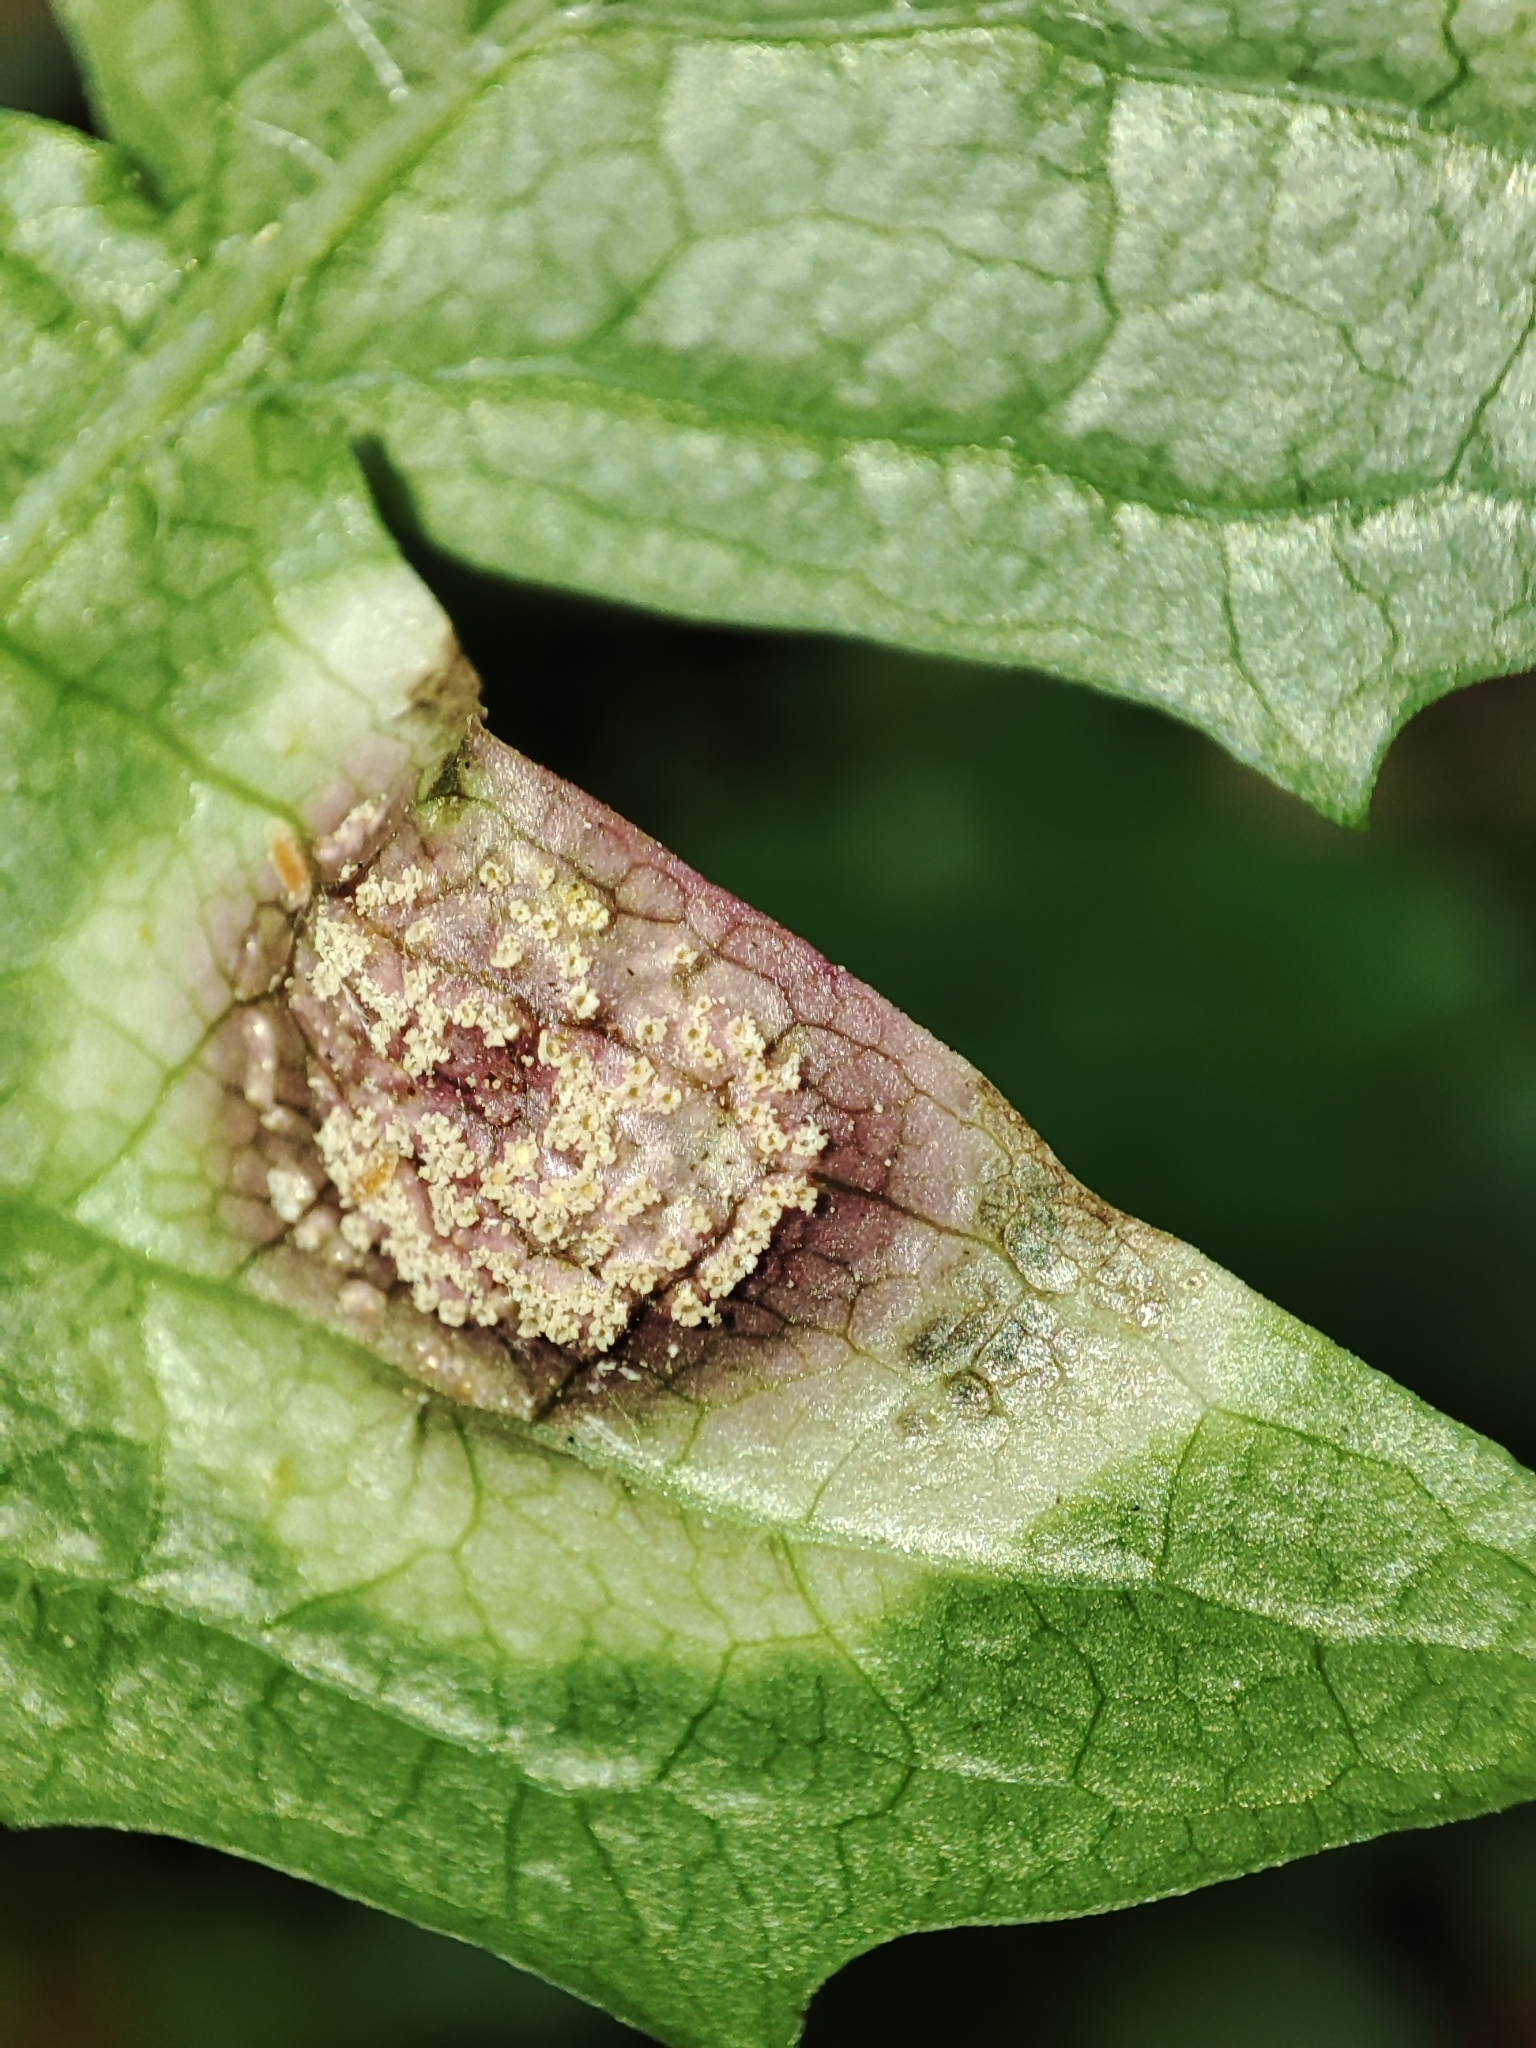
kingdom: Fungi
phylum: Basidiomycota
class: Pucciniomycetes
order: Pucciniales
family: Pucciniaceae
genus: Puccinia
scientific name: Puccinia poae-aposeridis
